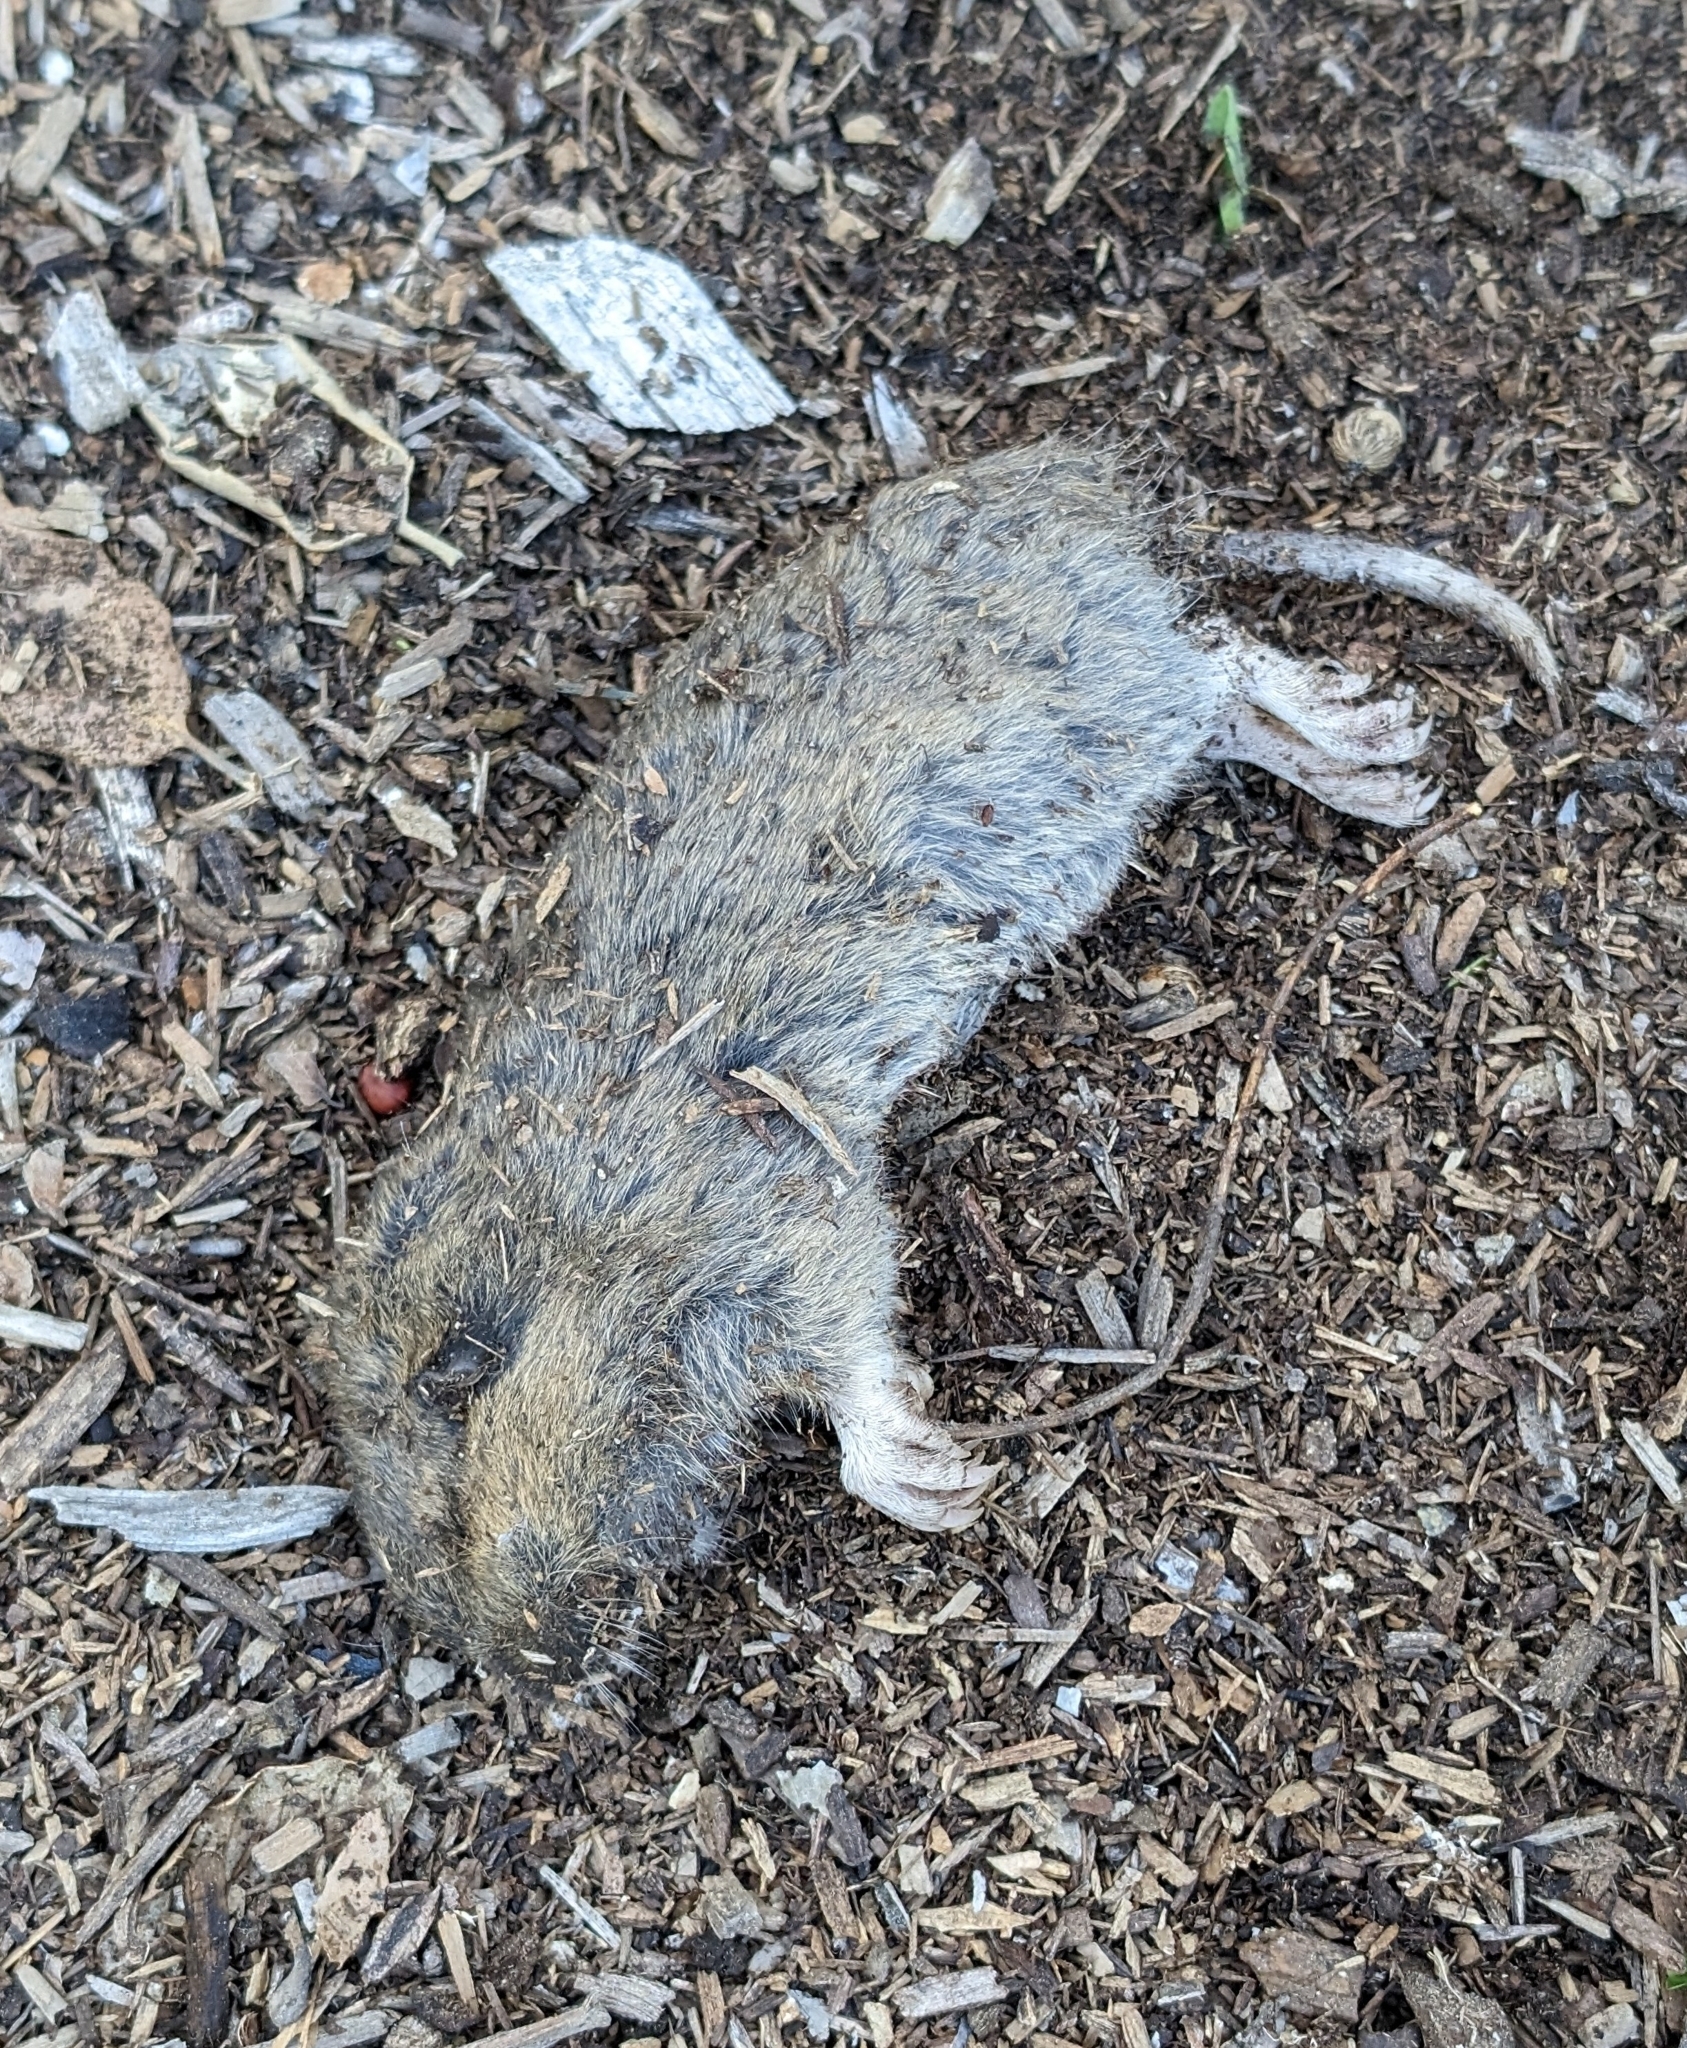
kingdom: Animalia
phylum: Chordata
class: Mammalia
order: Rodentia
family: Geomyidae
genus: Thomomys
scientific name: Thomomys bottae
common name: Botta's pocket gopher
